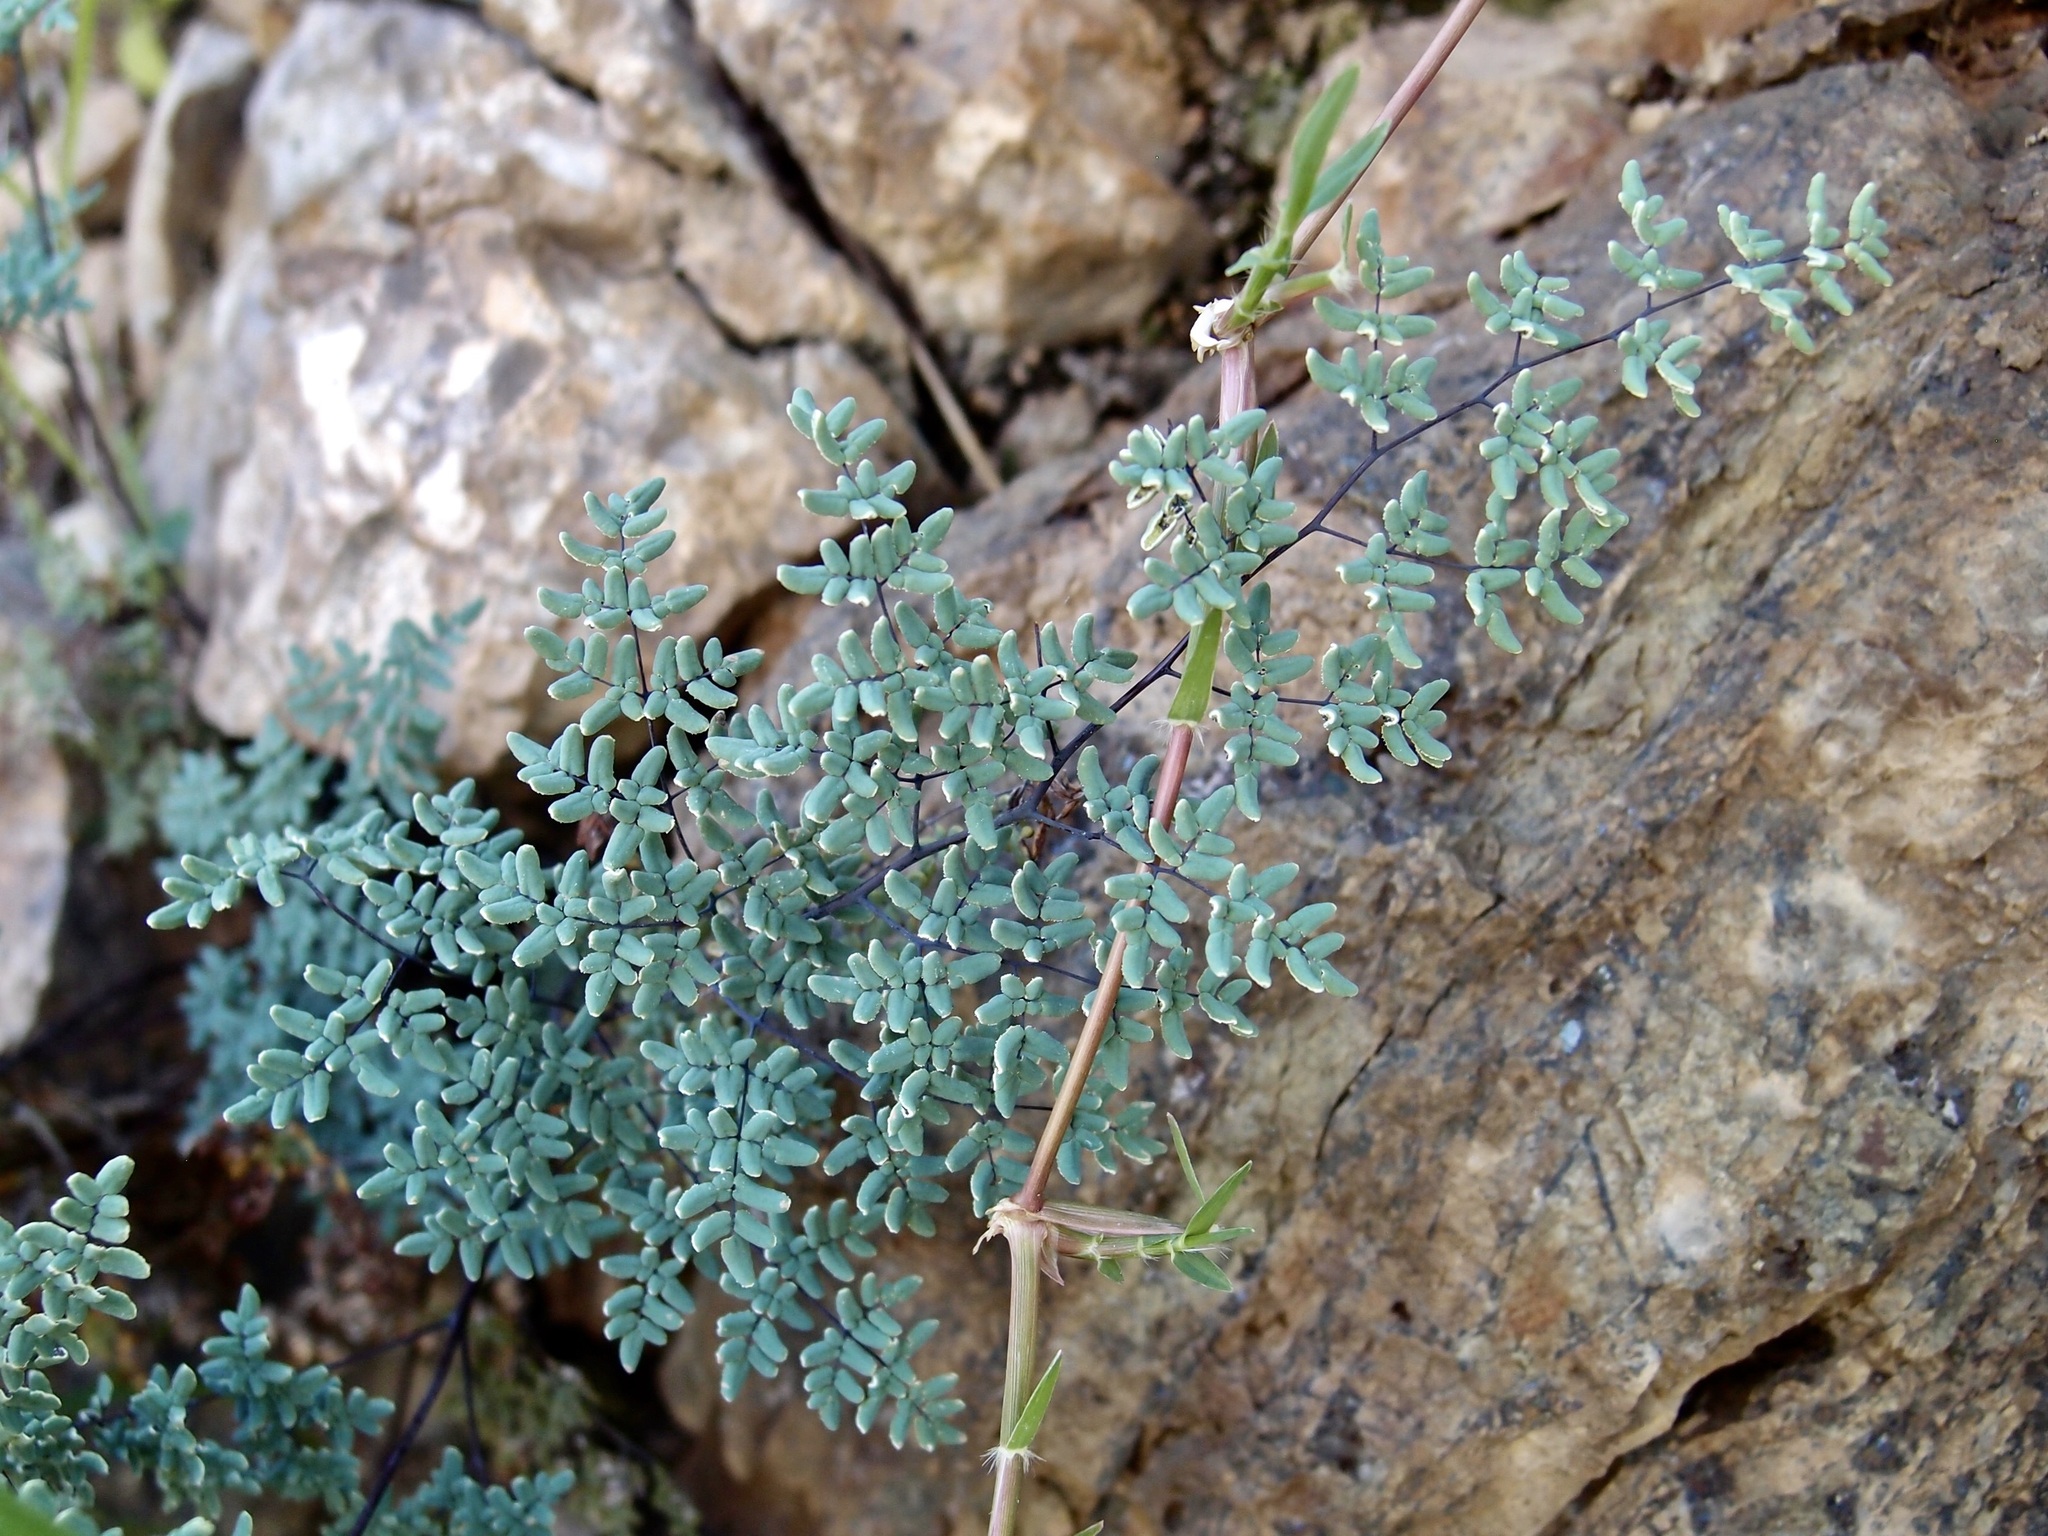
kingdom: Plantae
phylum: Tracheophyta
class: Polypodiopsida
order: Polypodiales
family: Pteridaceae
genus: Argyrochosma
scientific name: Argyrochosma limitanea
